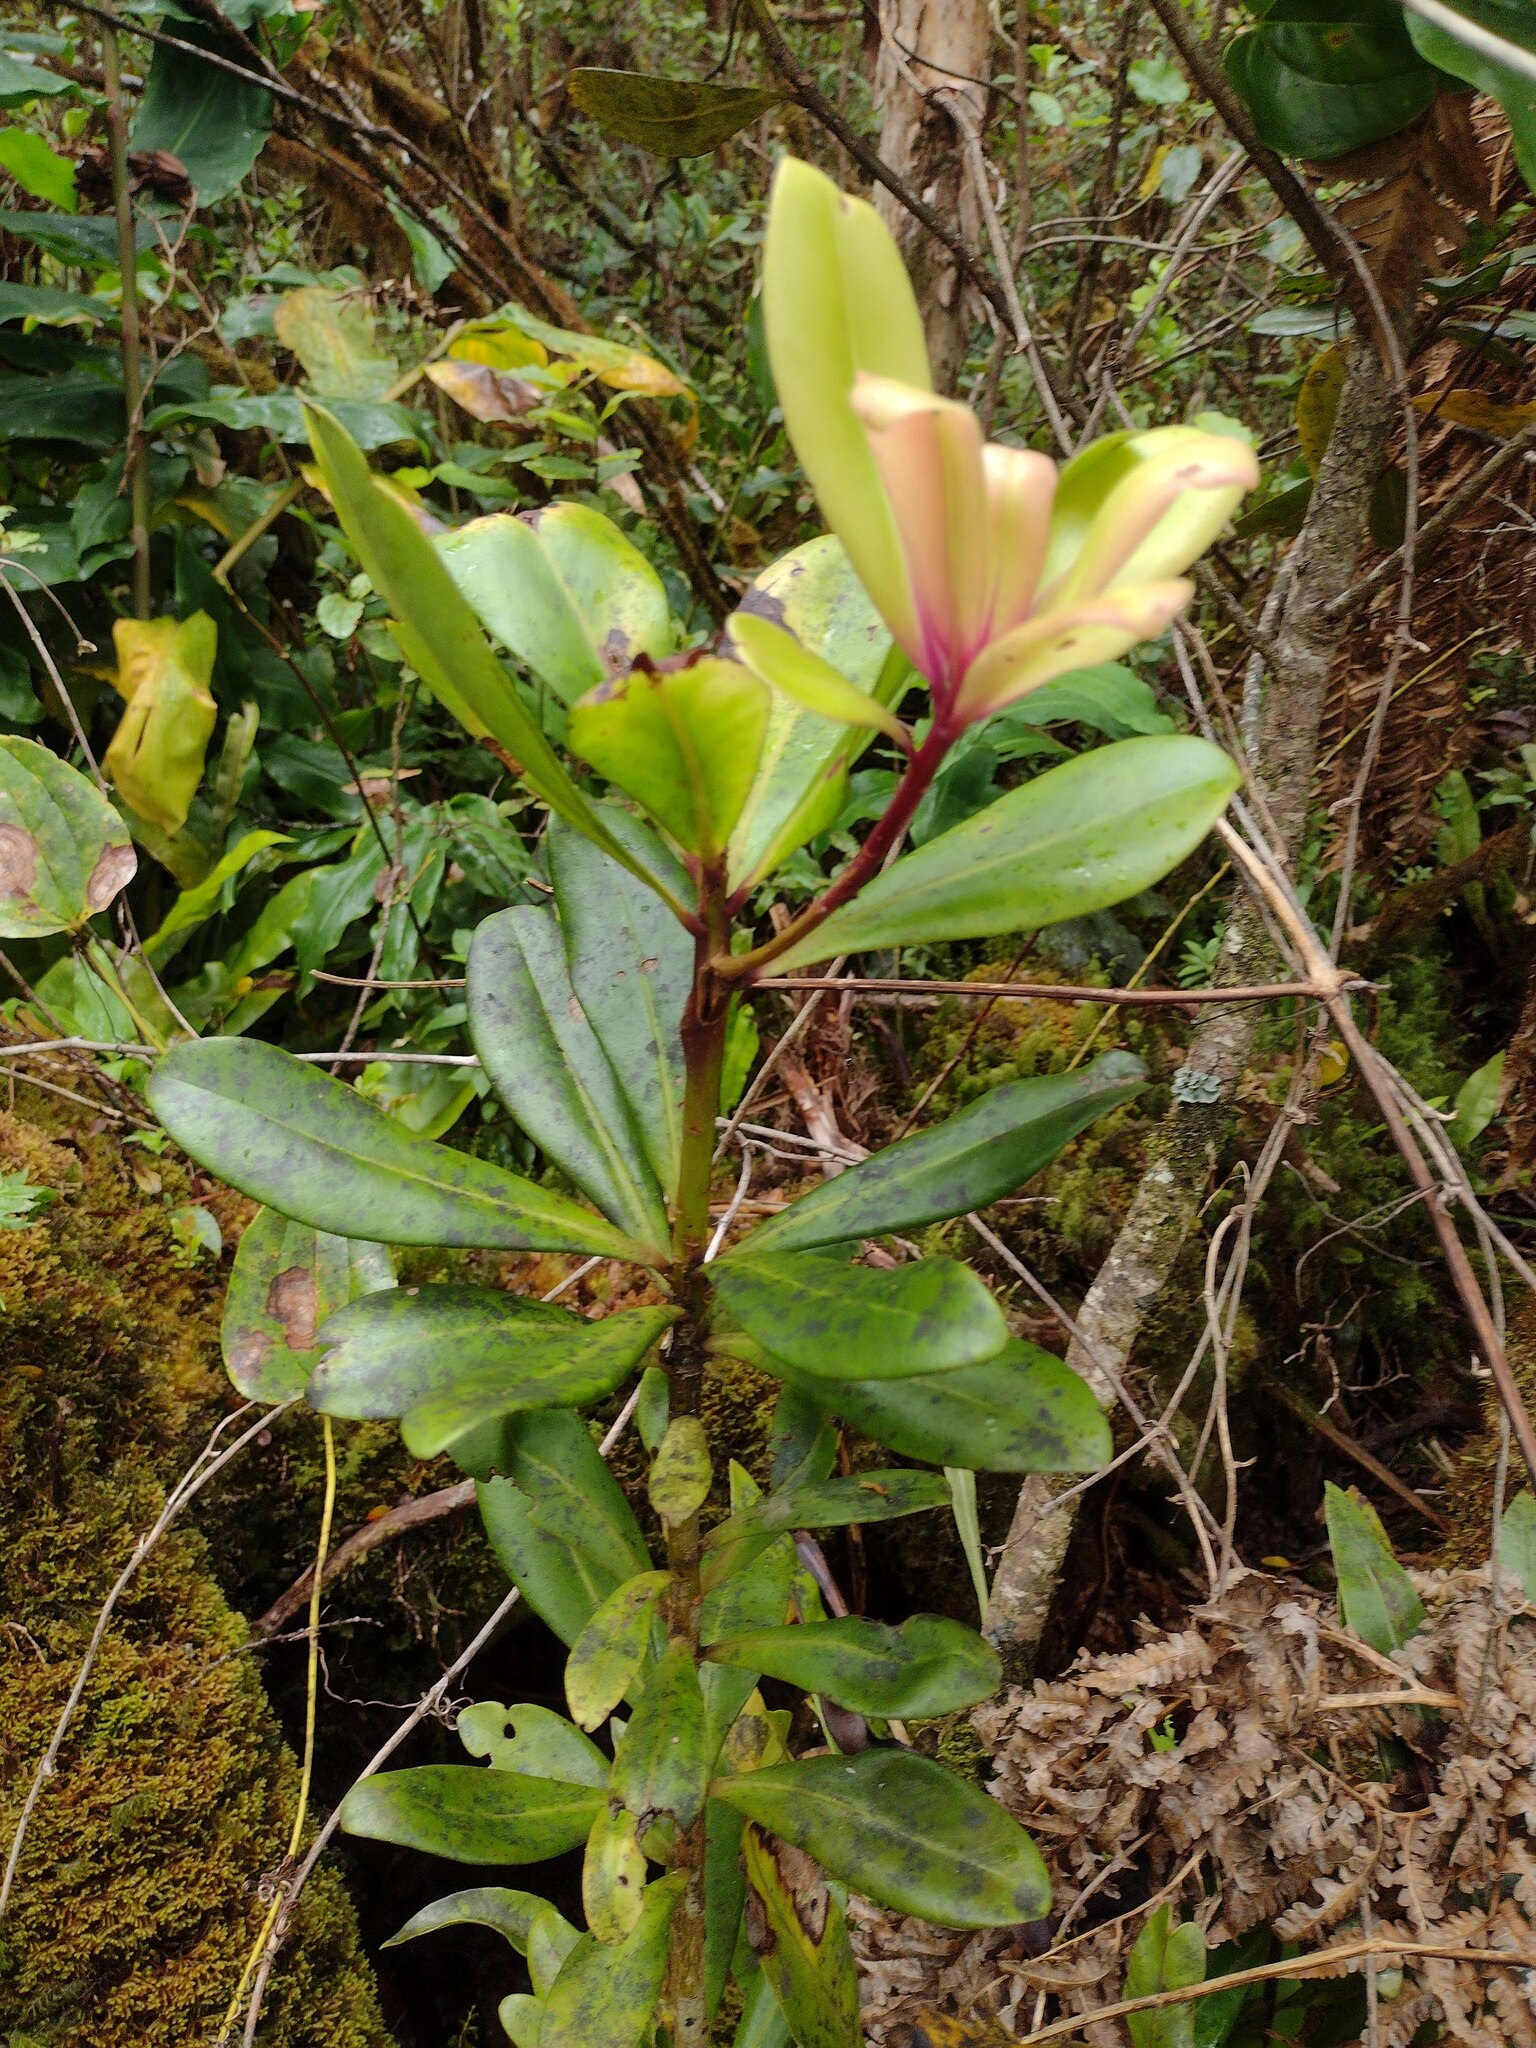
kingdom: Plantae
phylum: Tracheophyta
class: Magnoliopsida
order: Ericales
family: Primulaceae
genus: Myrsine
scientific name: Myrsine lessertiana
